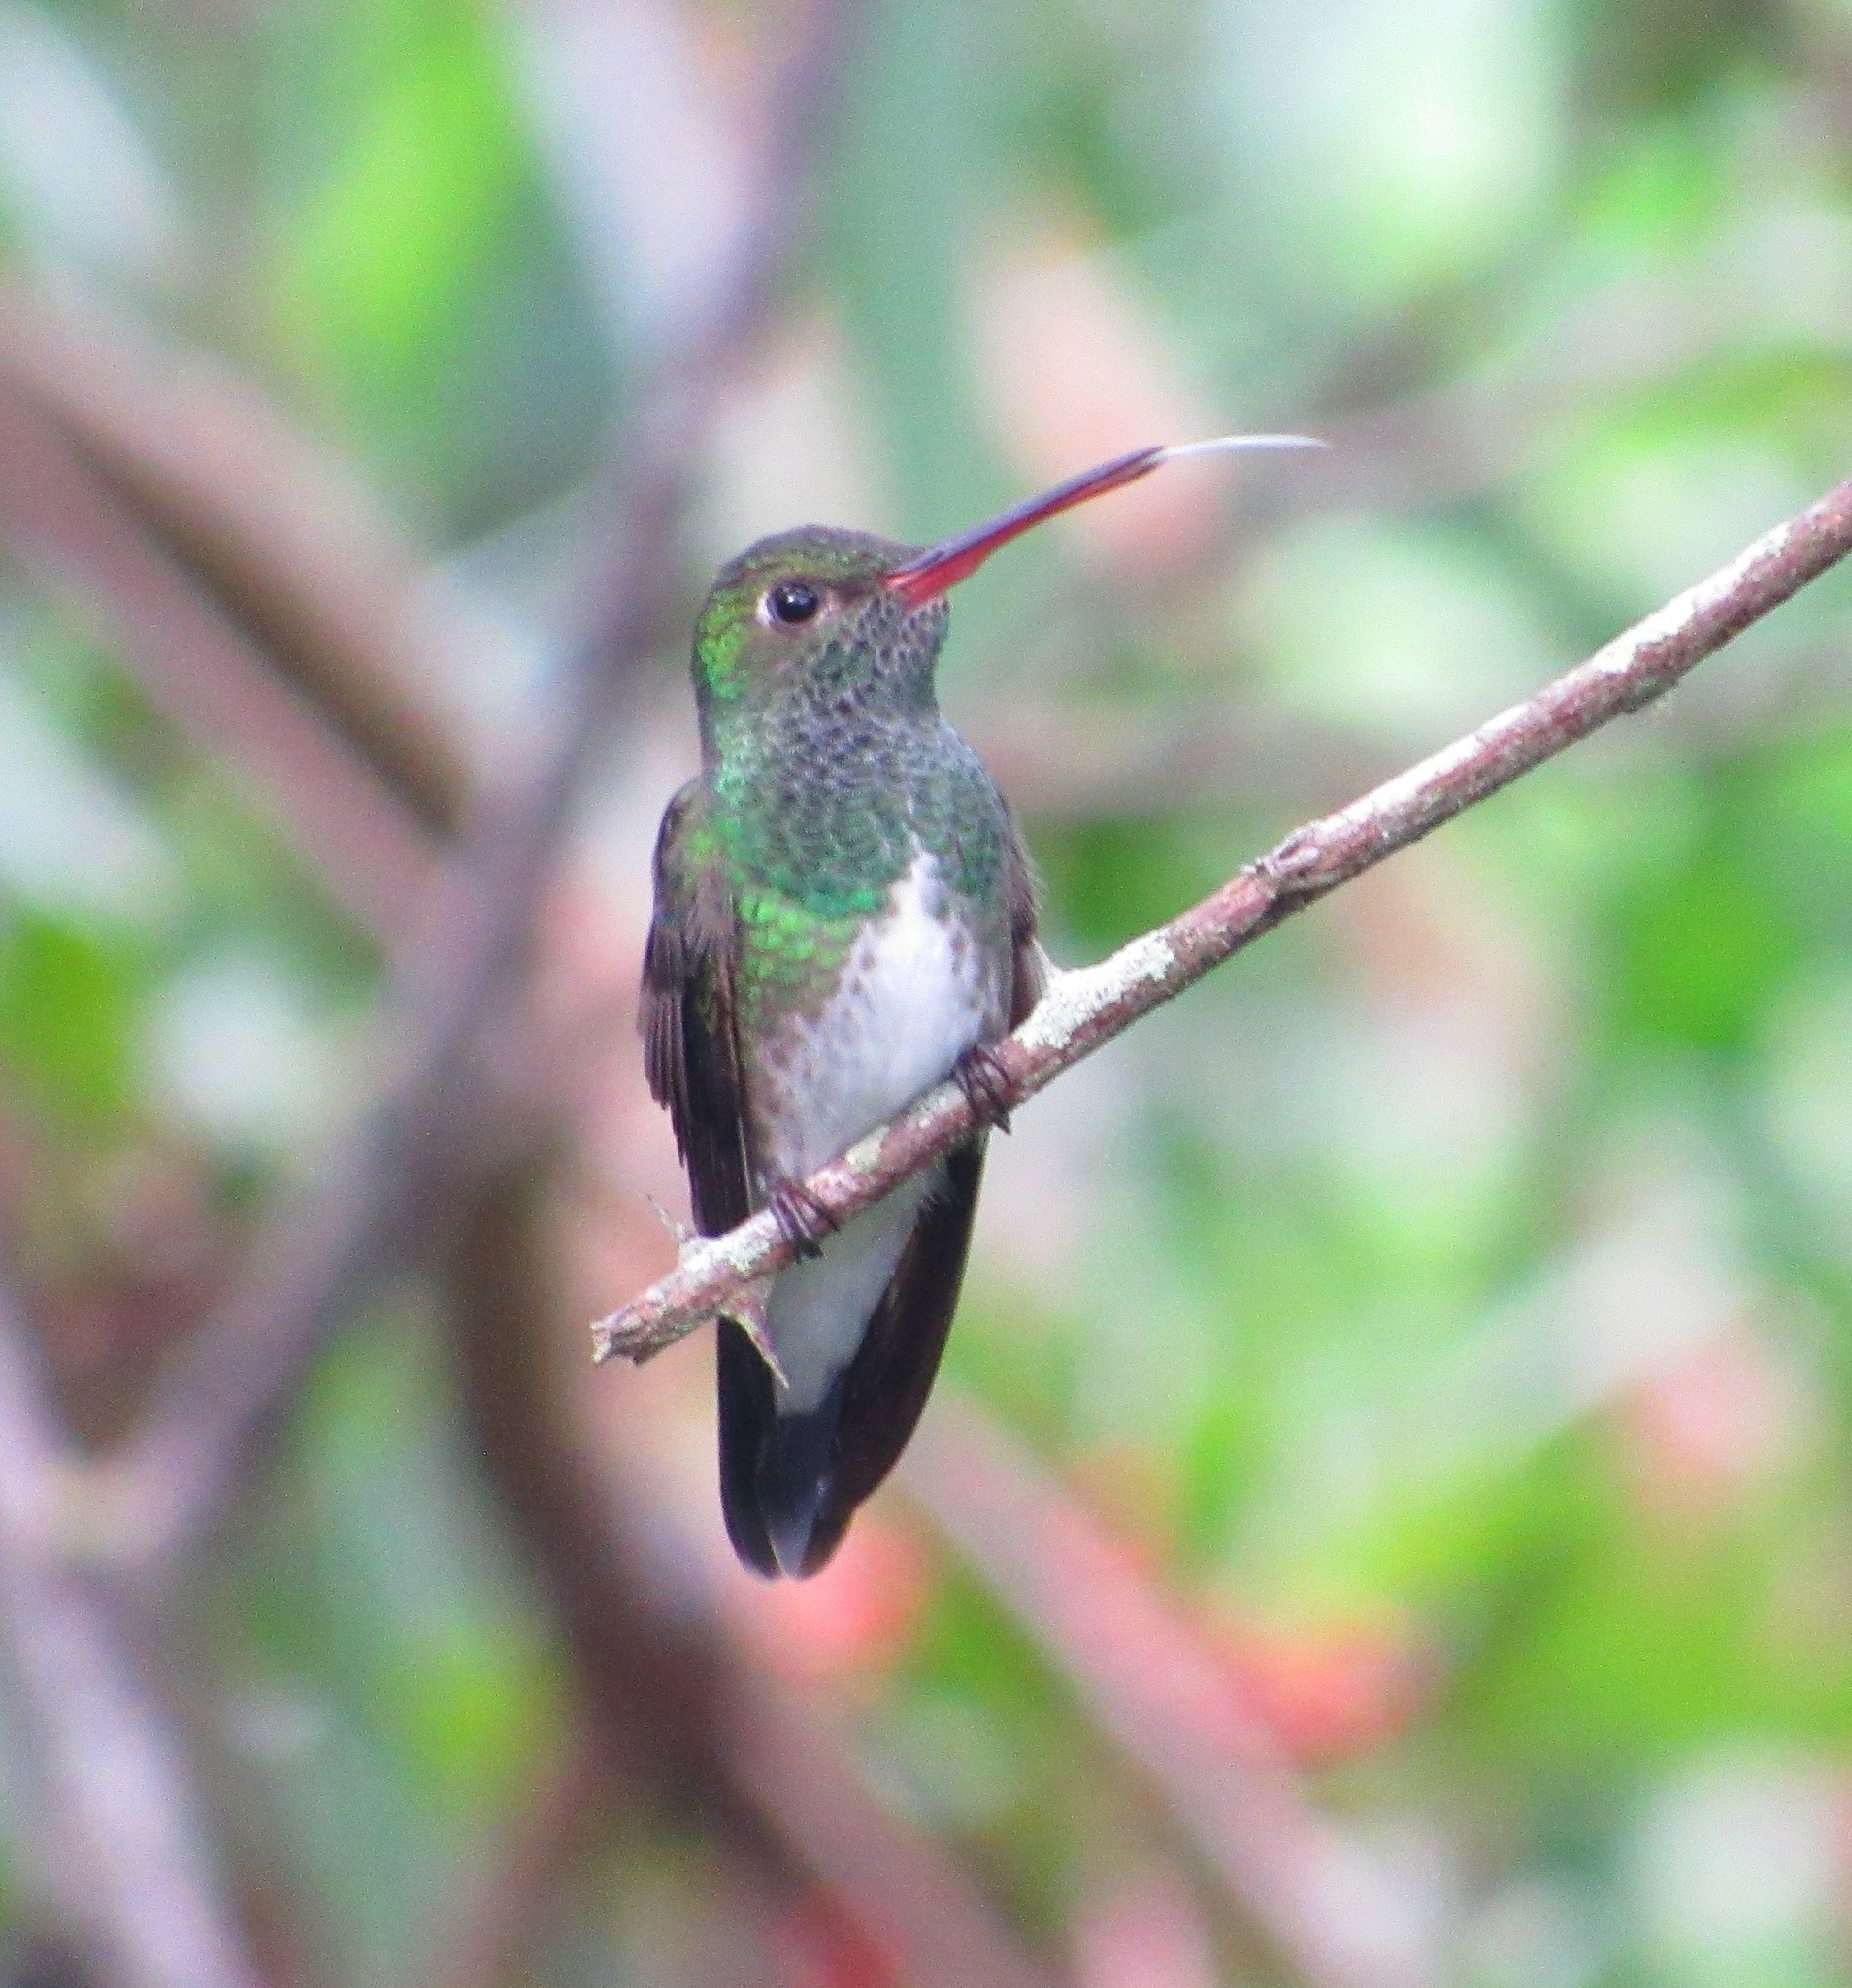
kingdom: Animalia
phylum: Chordata
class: Aves
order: Apodiformes
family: Trochilidae
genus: Chionomesa
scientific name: Chionomesa fimbriata
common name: Glittering-throated emerald
